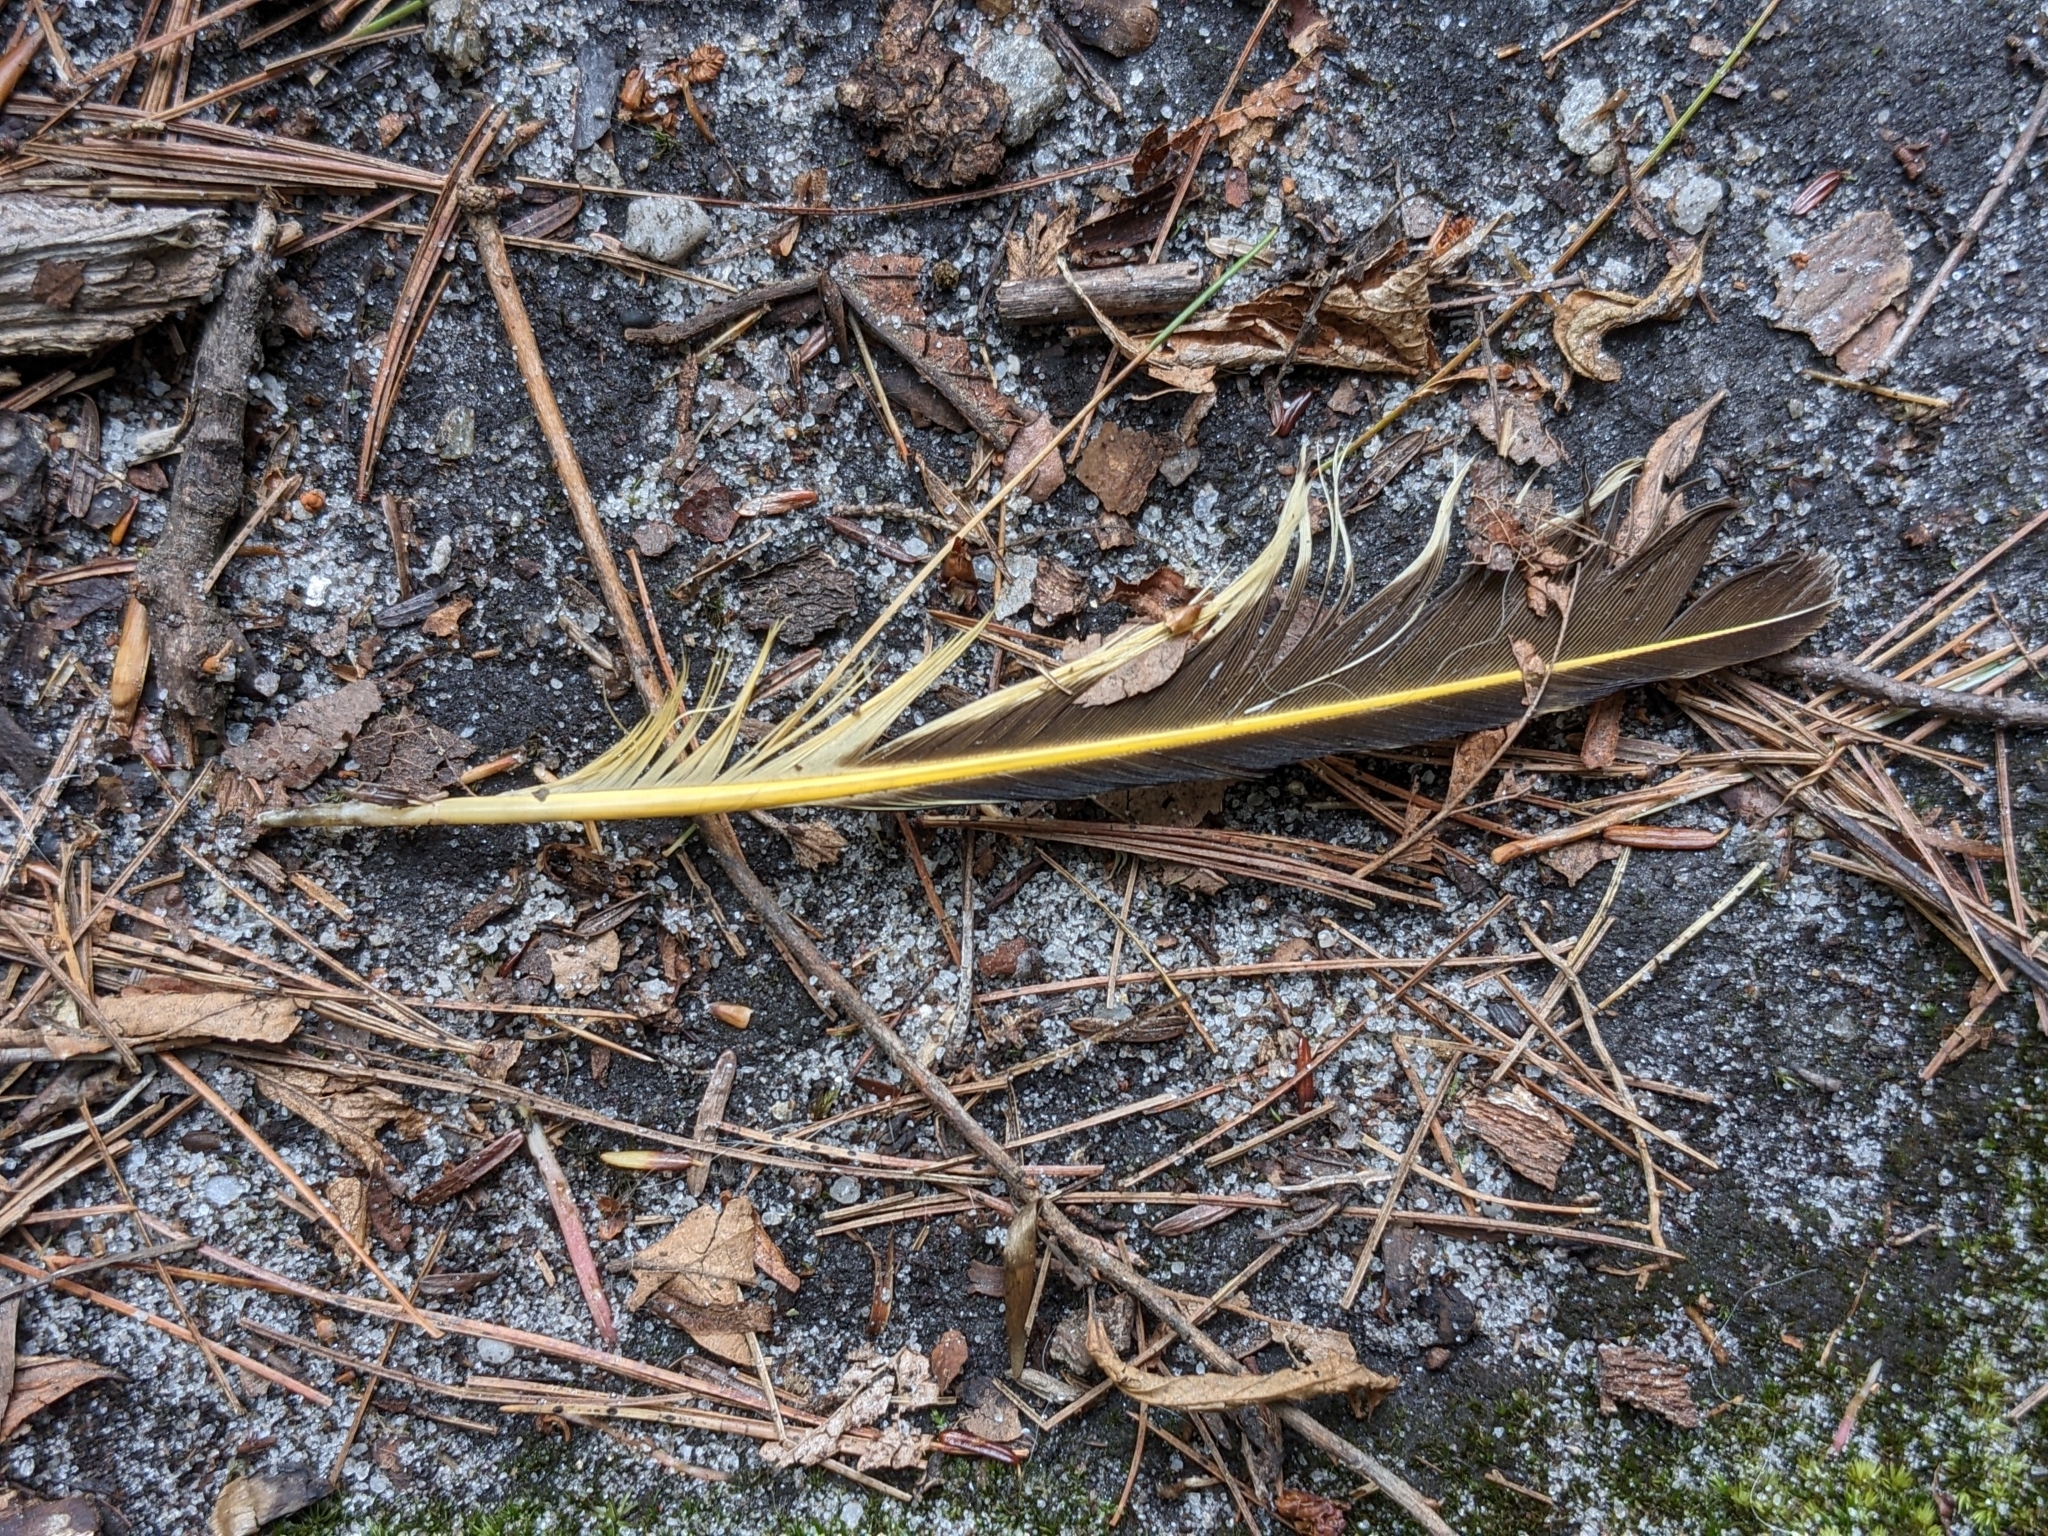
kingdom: Animalia
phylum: Chordata
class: Aves
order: Piciformes
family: Picidae
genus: Colaptes
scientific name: Colaptes auratus
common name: Northern flicker
